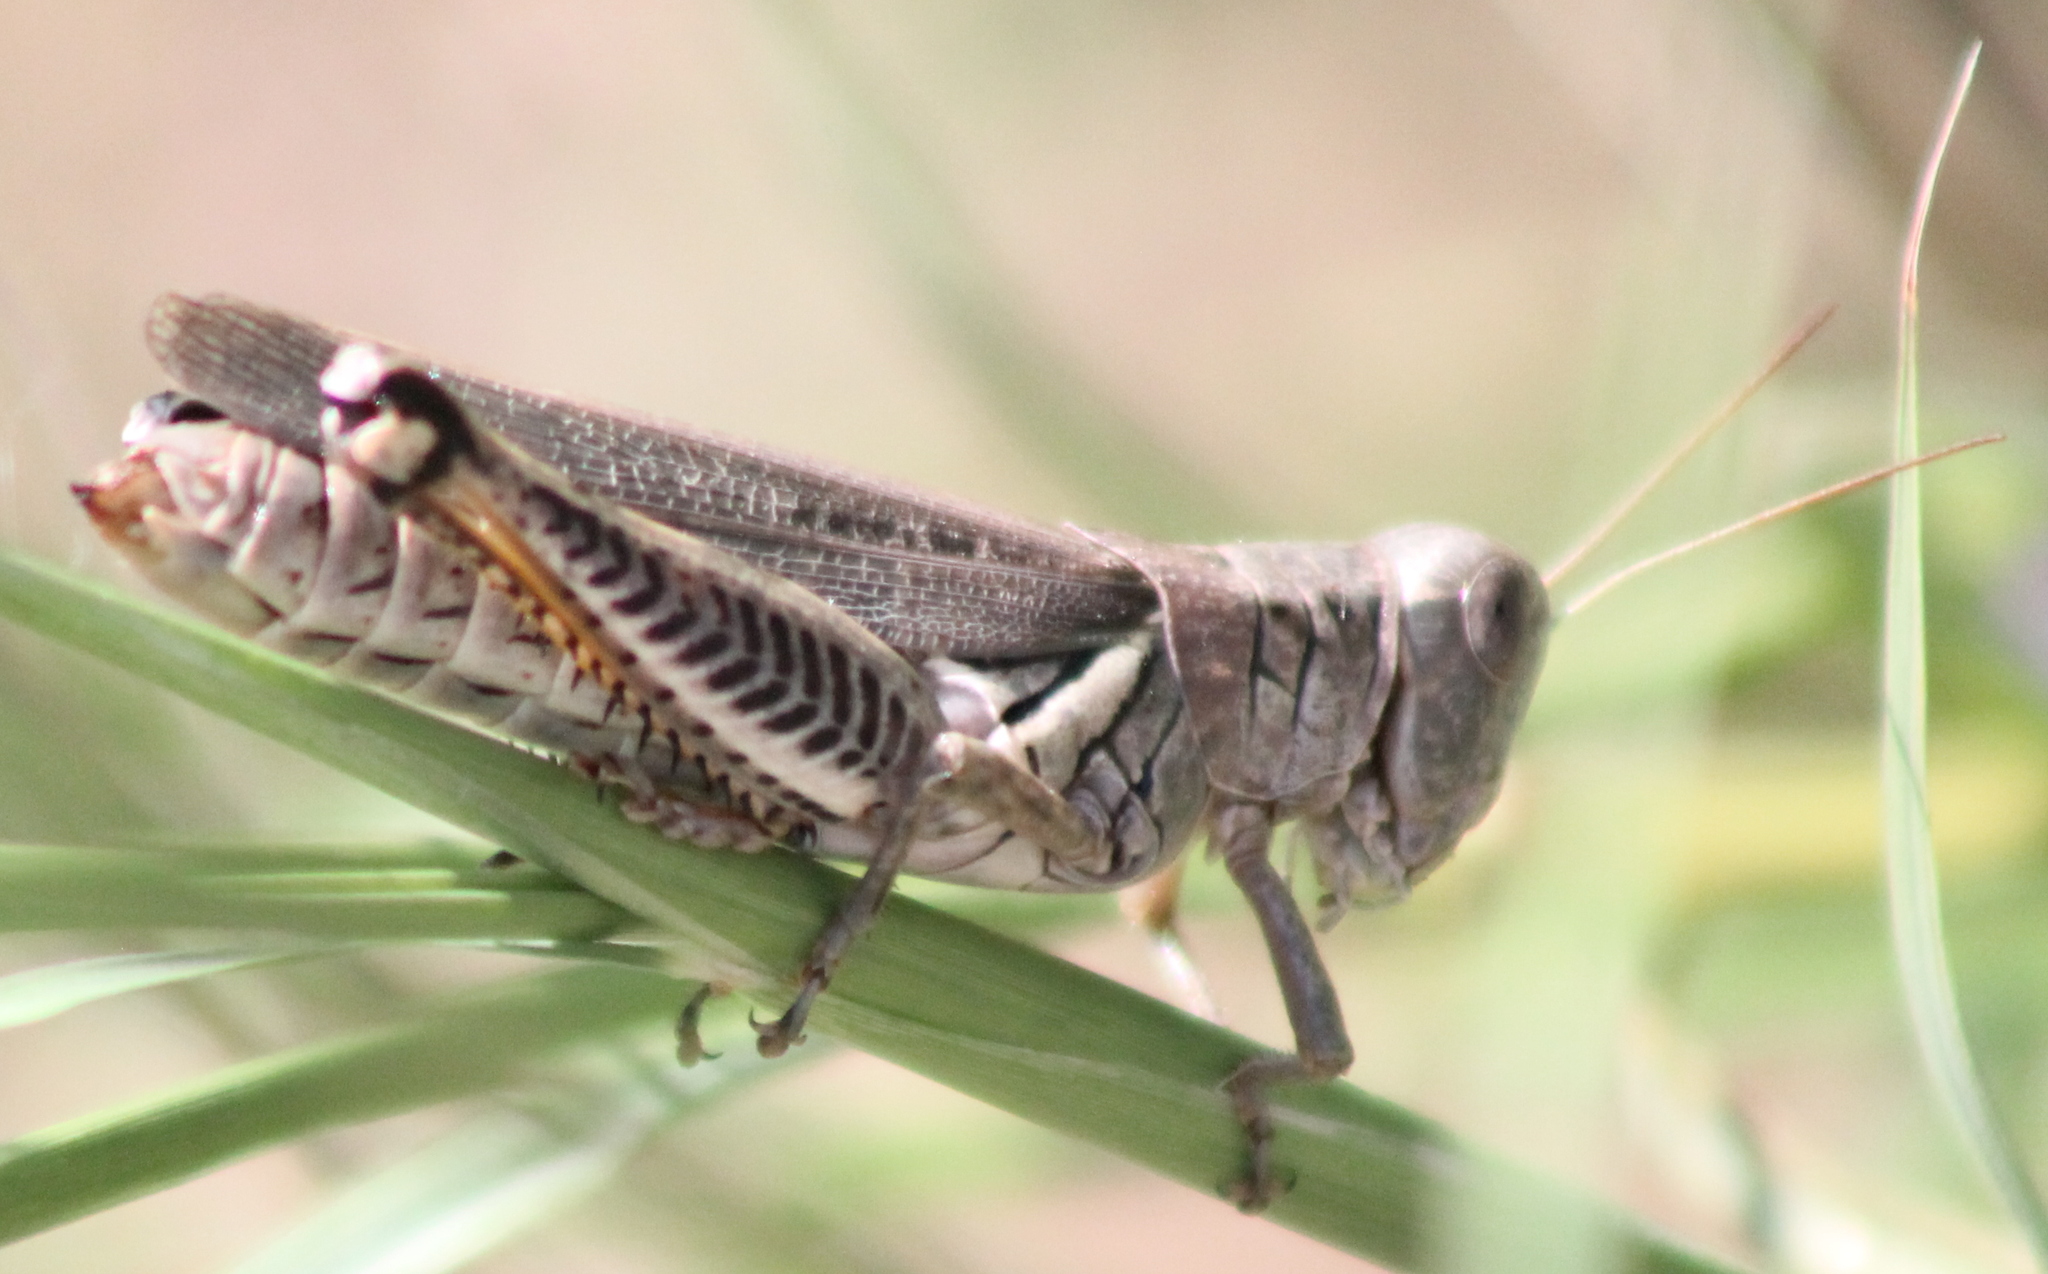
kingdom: Animalia
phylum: Arthropoda
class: Insecta
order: Orthoptera
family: Acrididae
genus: Melanoplus
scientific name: Melanoplus differentialis
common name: Differential grasshopper
